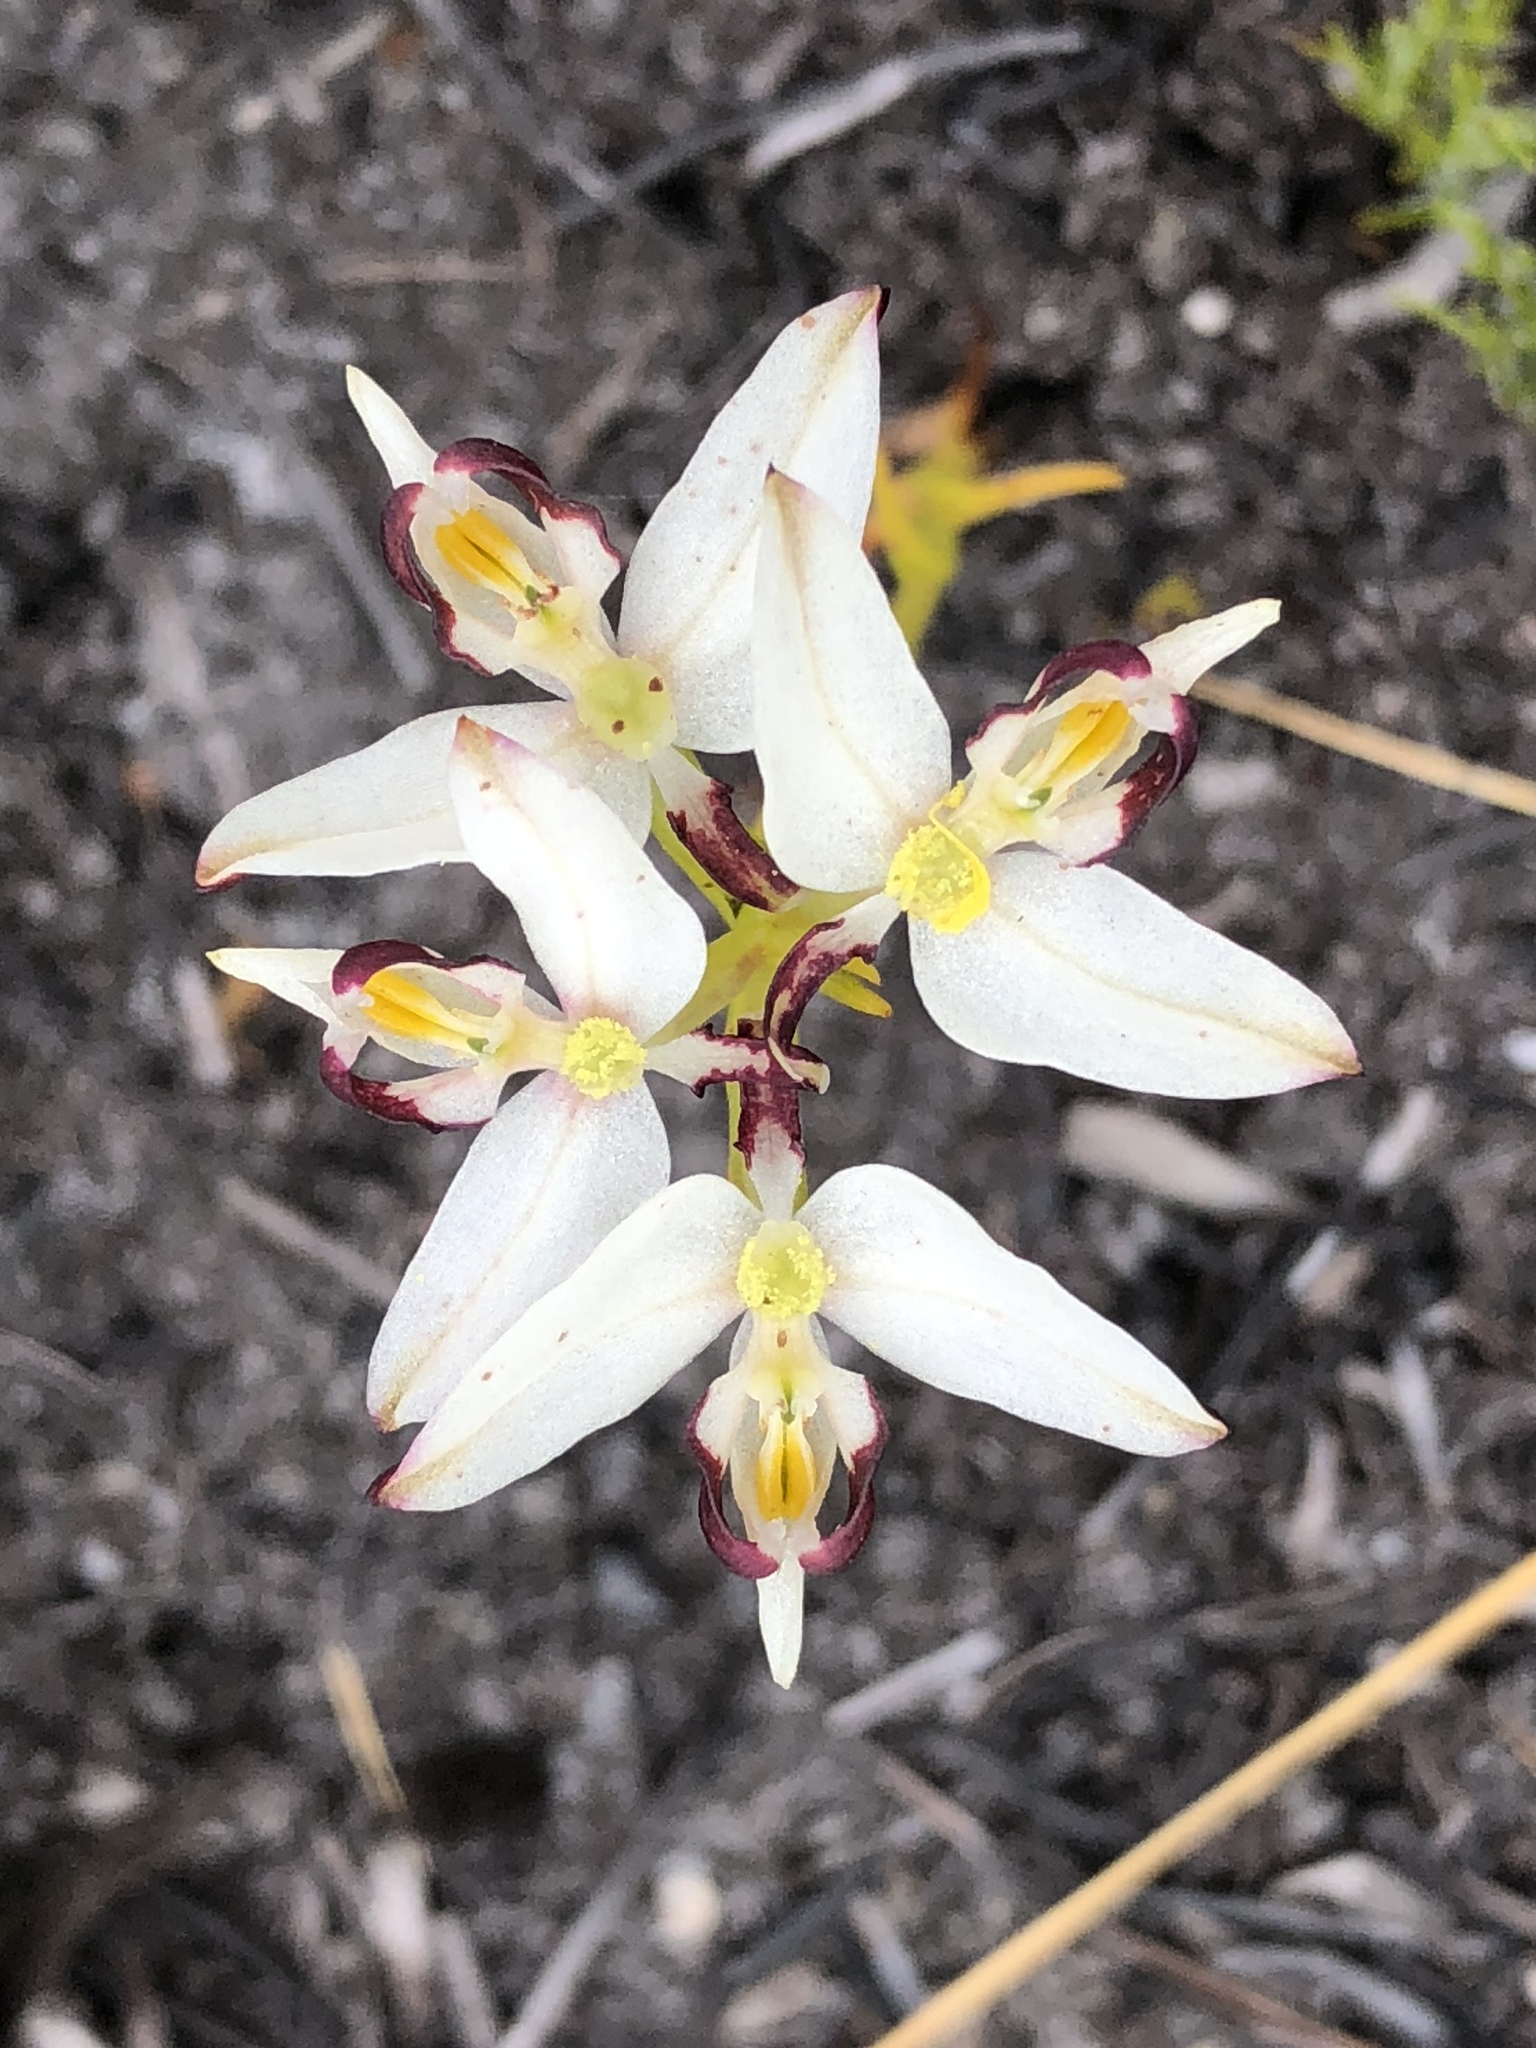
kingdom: Plantae
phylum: Tracheophyta
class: Liliopsida
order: Asparagales
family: Orchidaceae
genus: Disa
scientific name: Disa bivalvata
